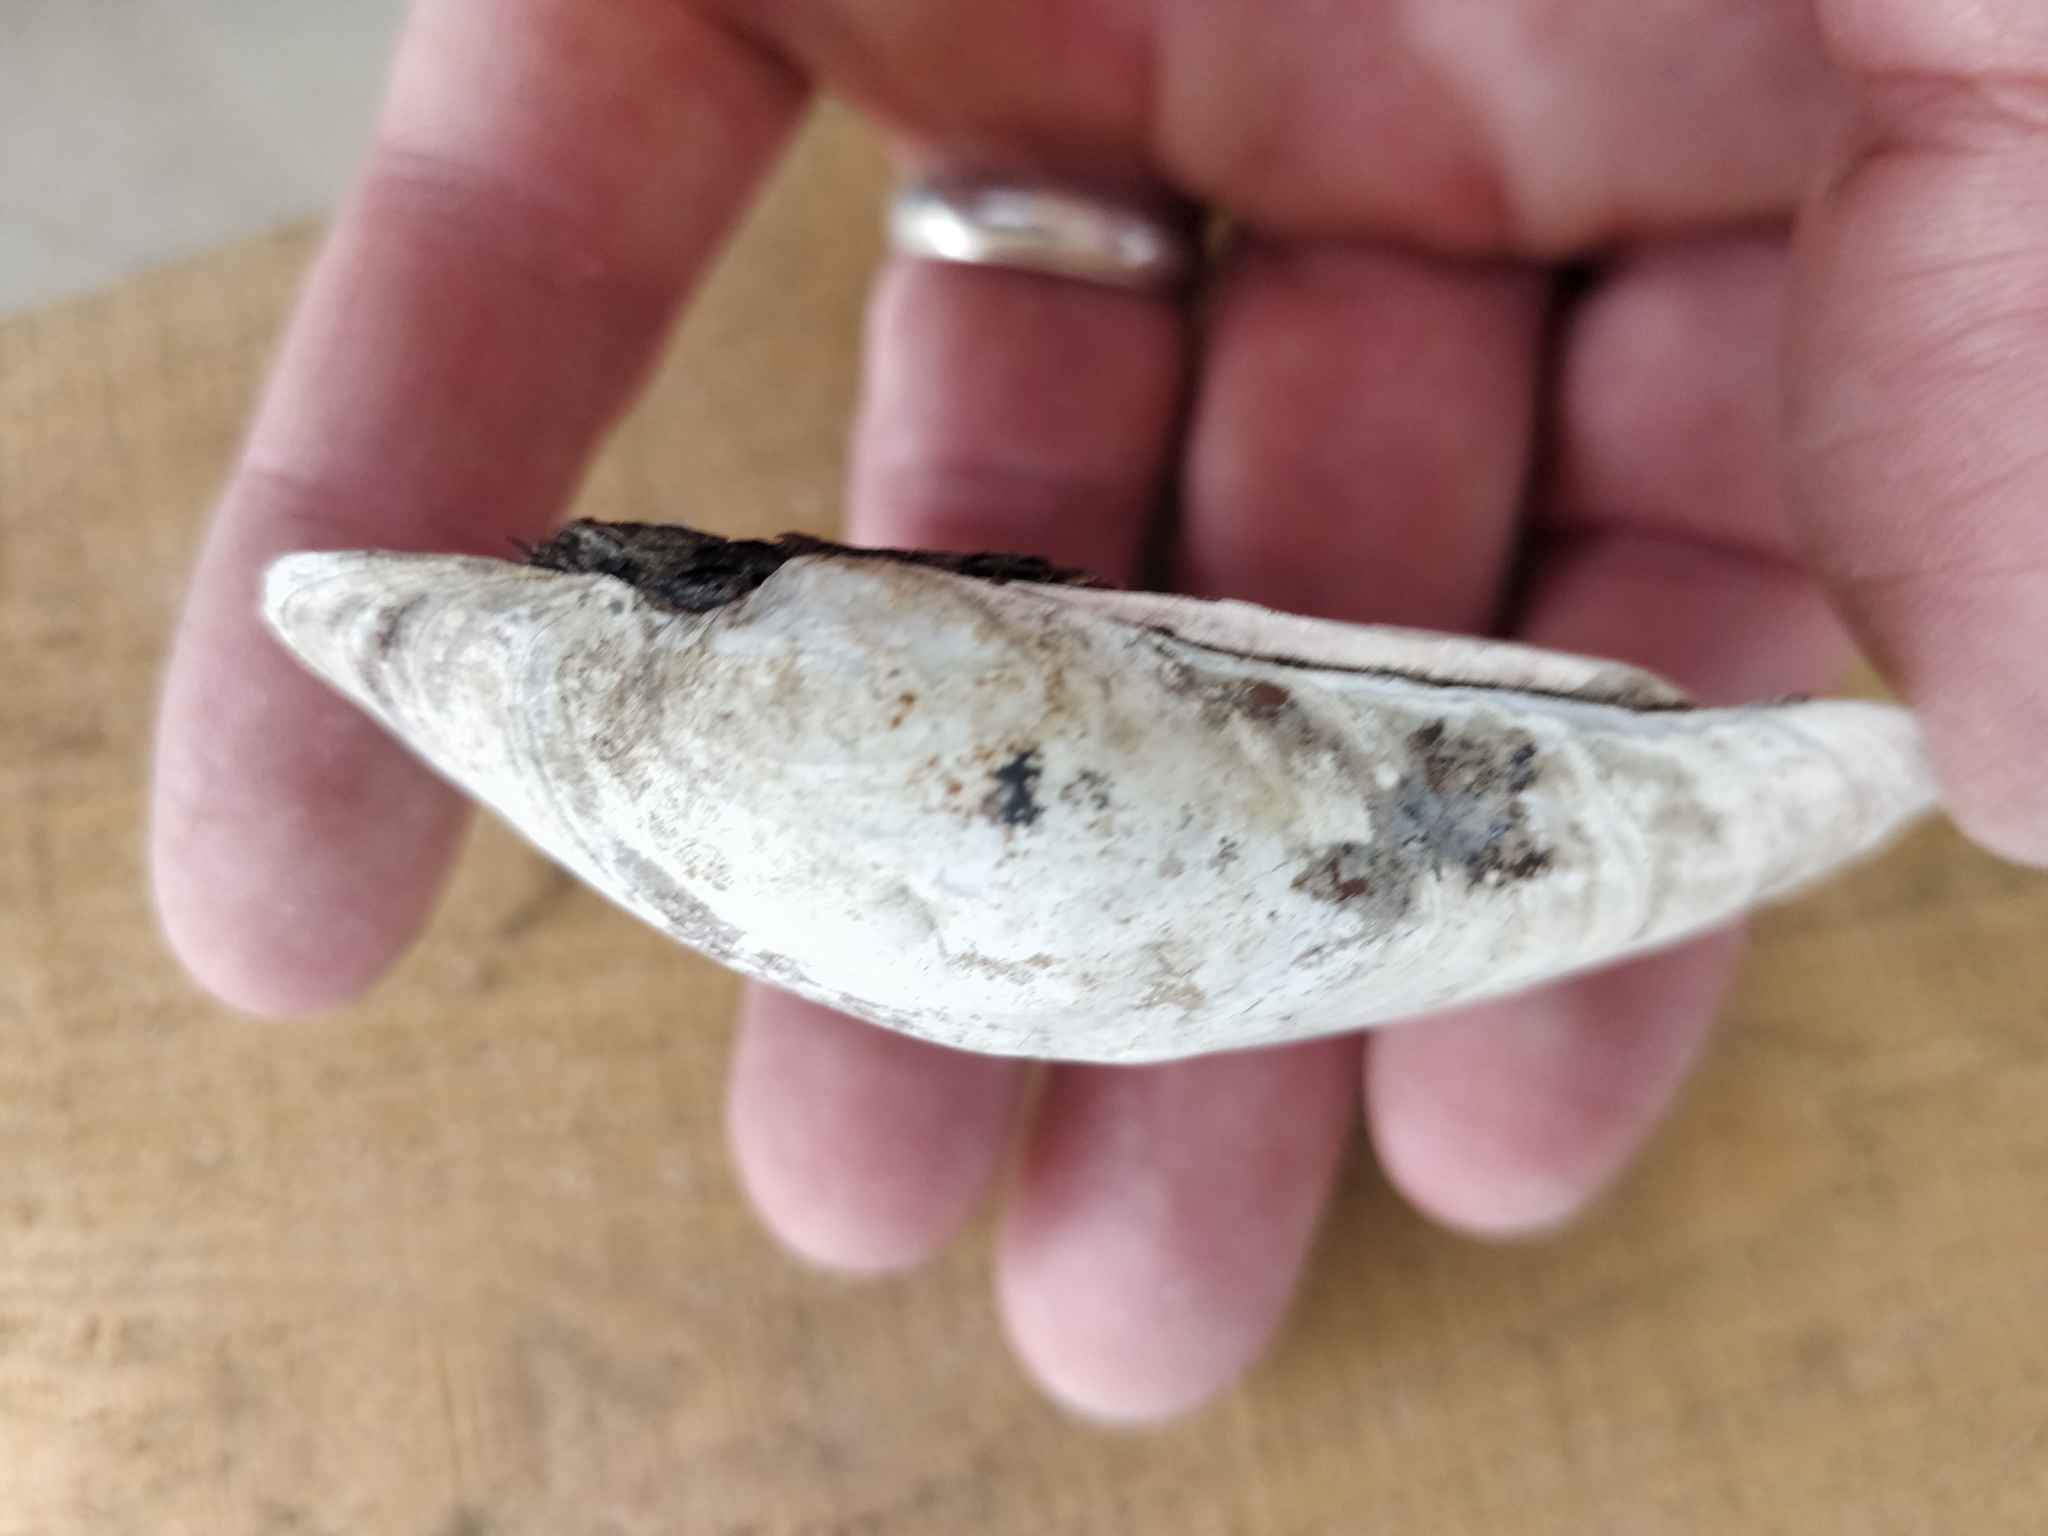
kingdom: Animalia
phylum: Mollusca
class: Bivalvia
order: Unionida
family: Unionidae
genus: Lampsilis
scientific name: Lampsilis cardium
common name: Plain pocketbook
